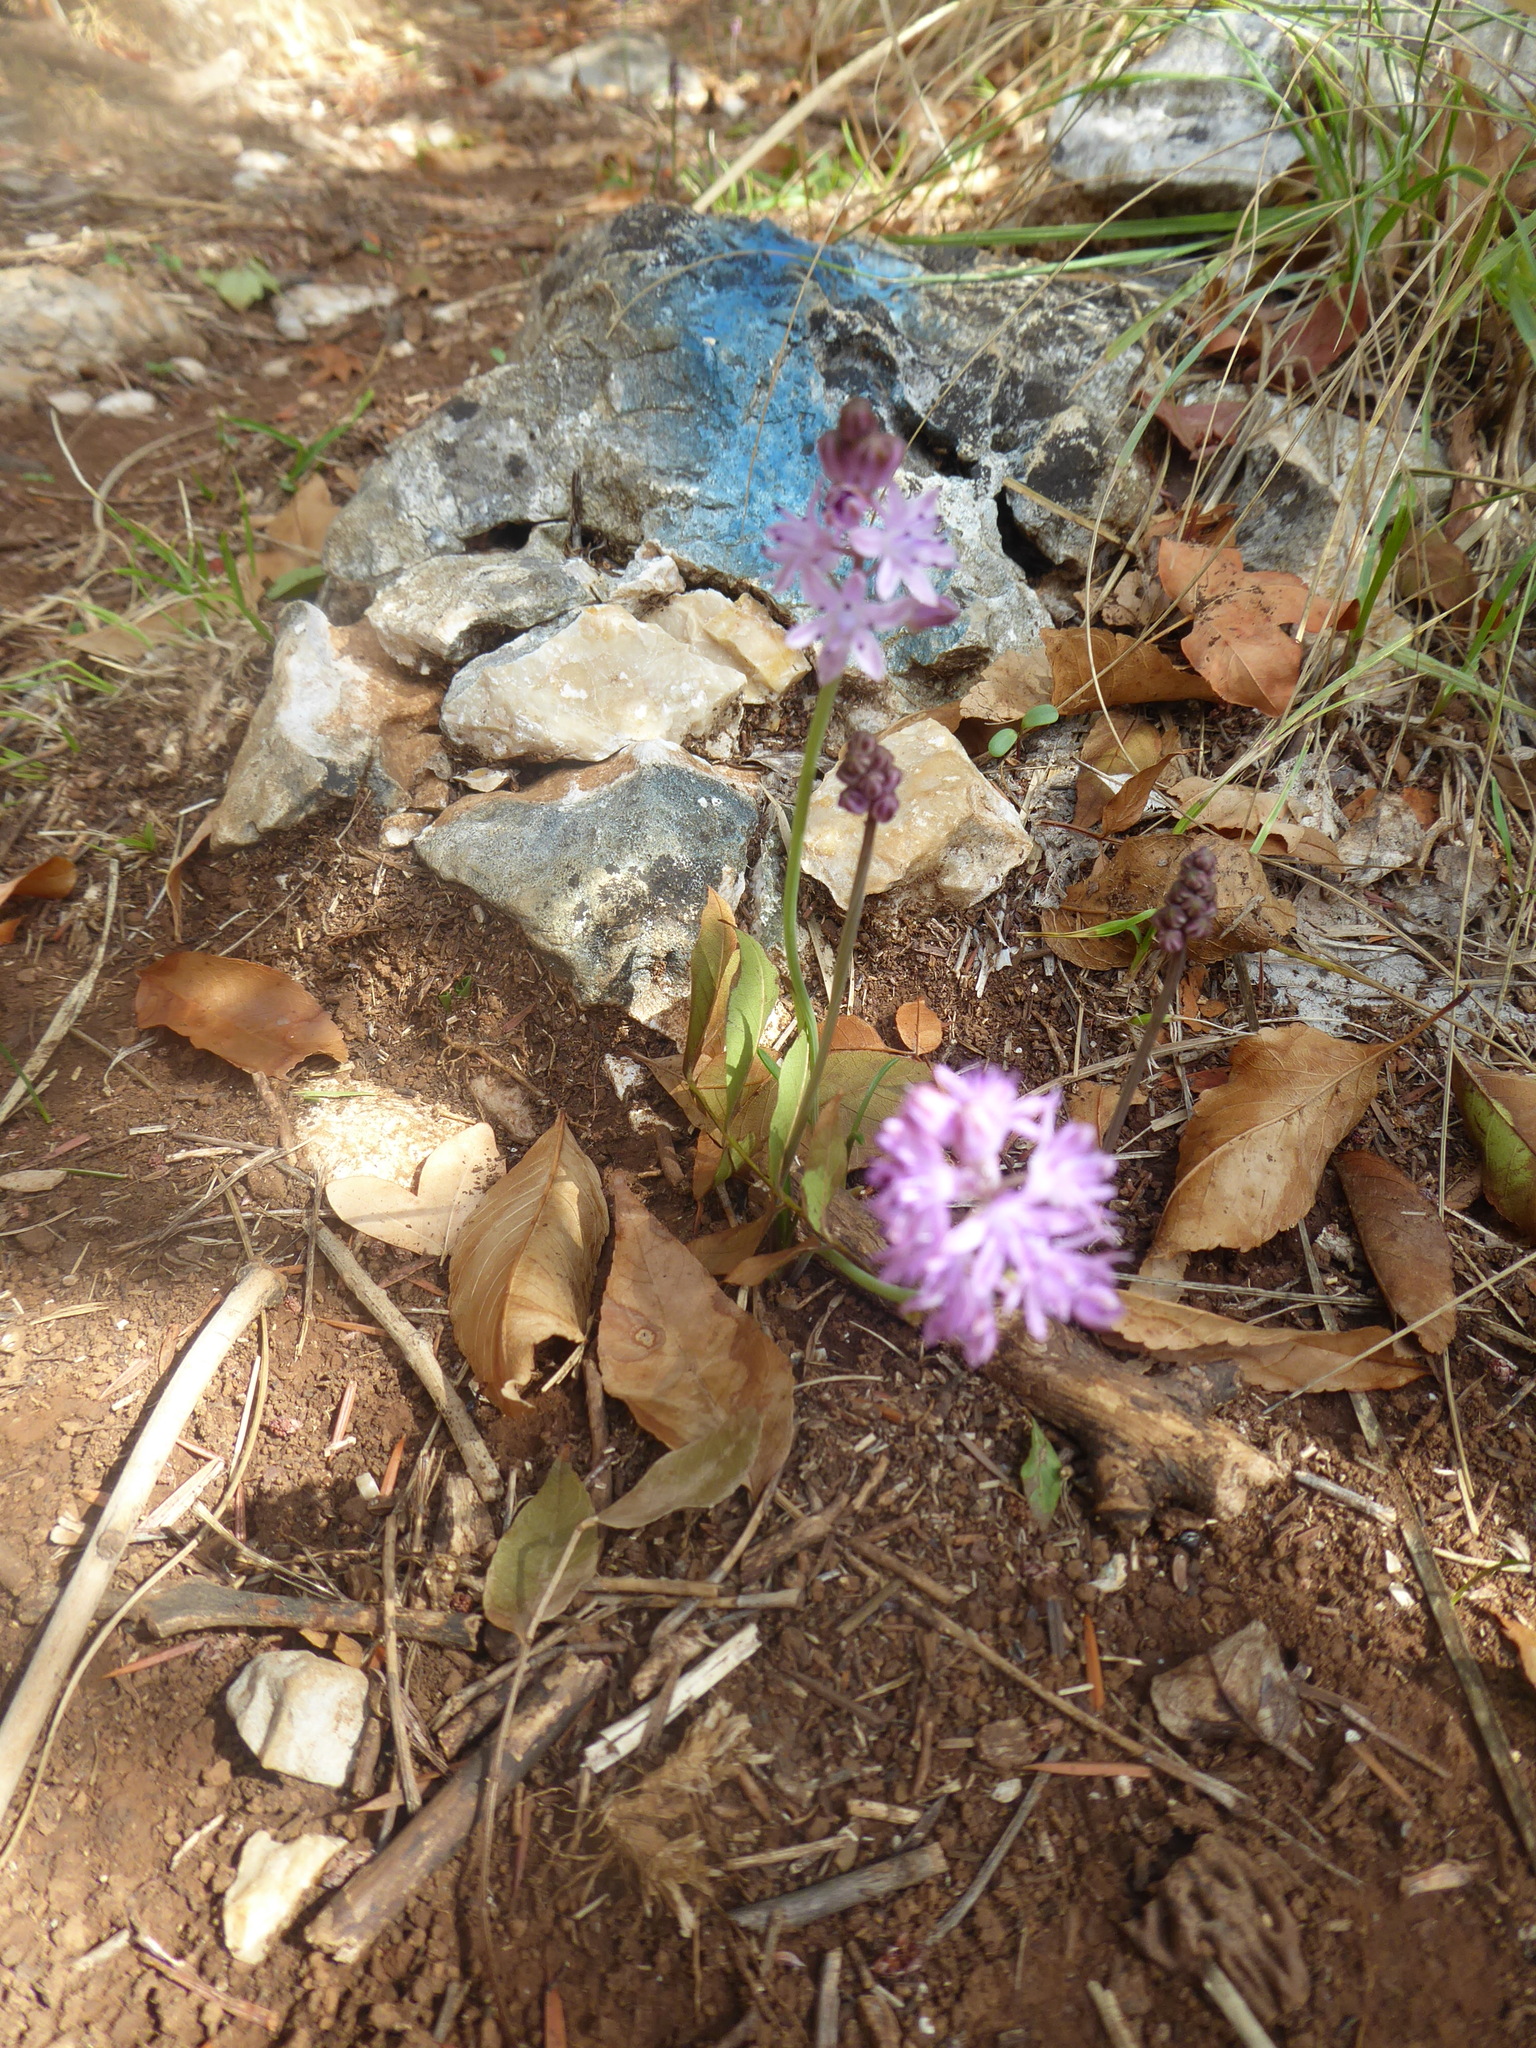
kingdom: Plantae
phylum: Tracheophyta
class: Liliopsida
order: Asparagales
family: Asparagaceae
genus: Prospero
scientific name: Prospero autumnale
